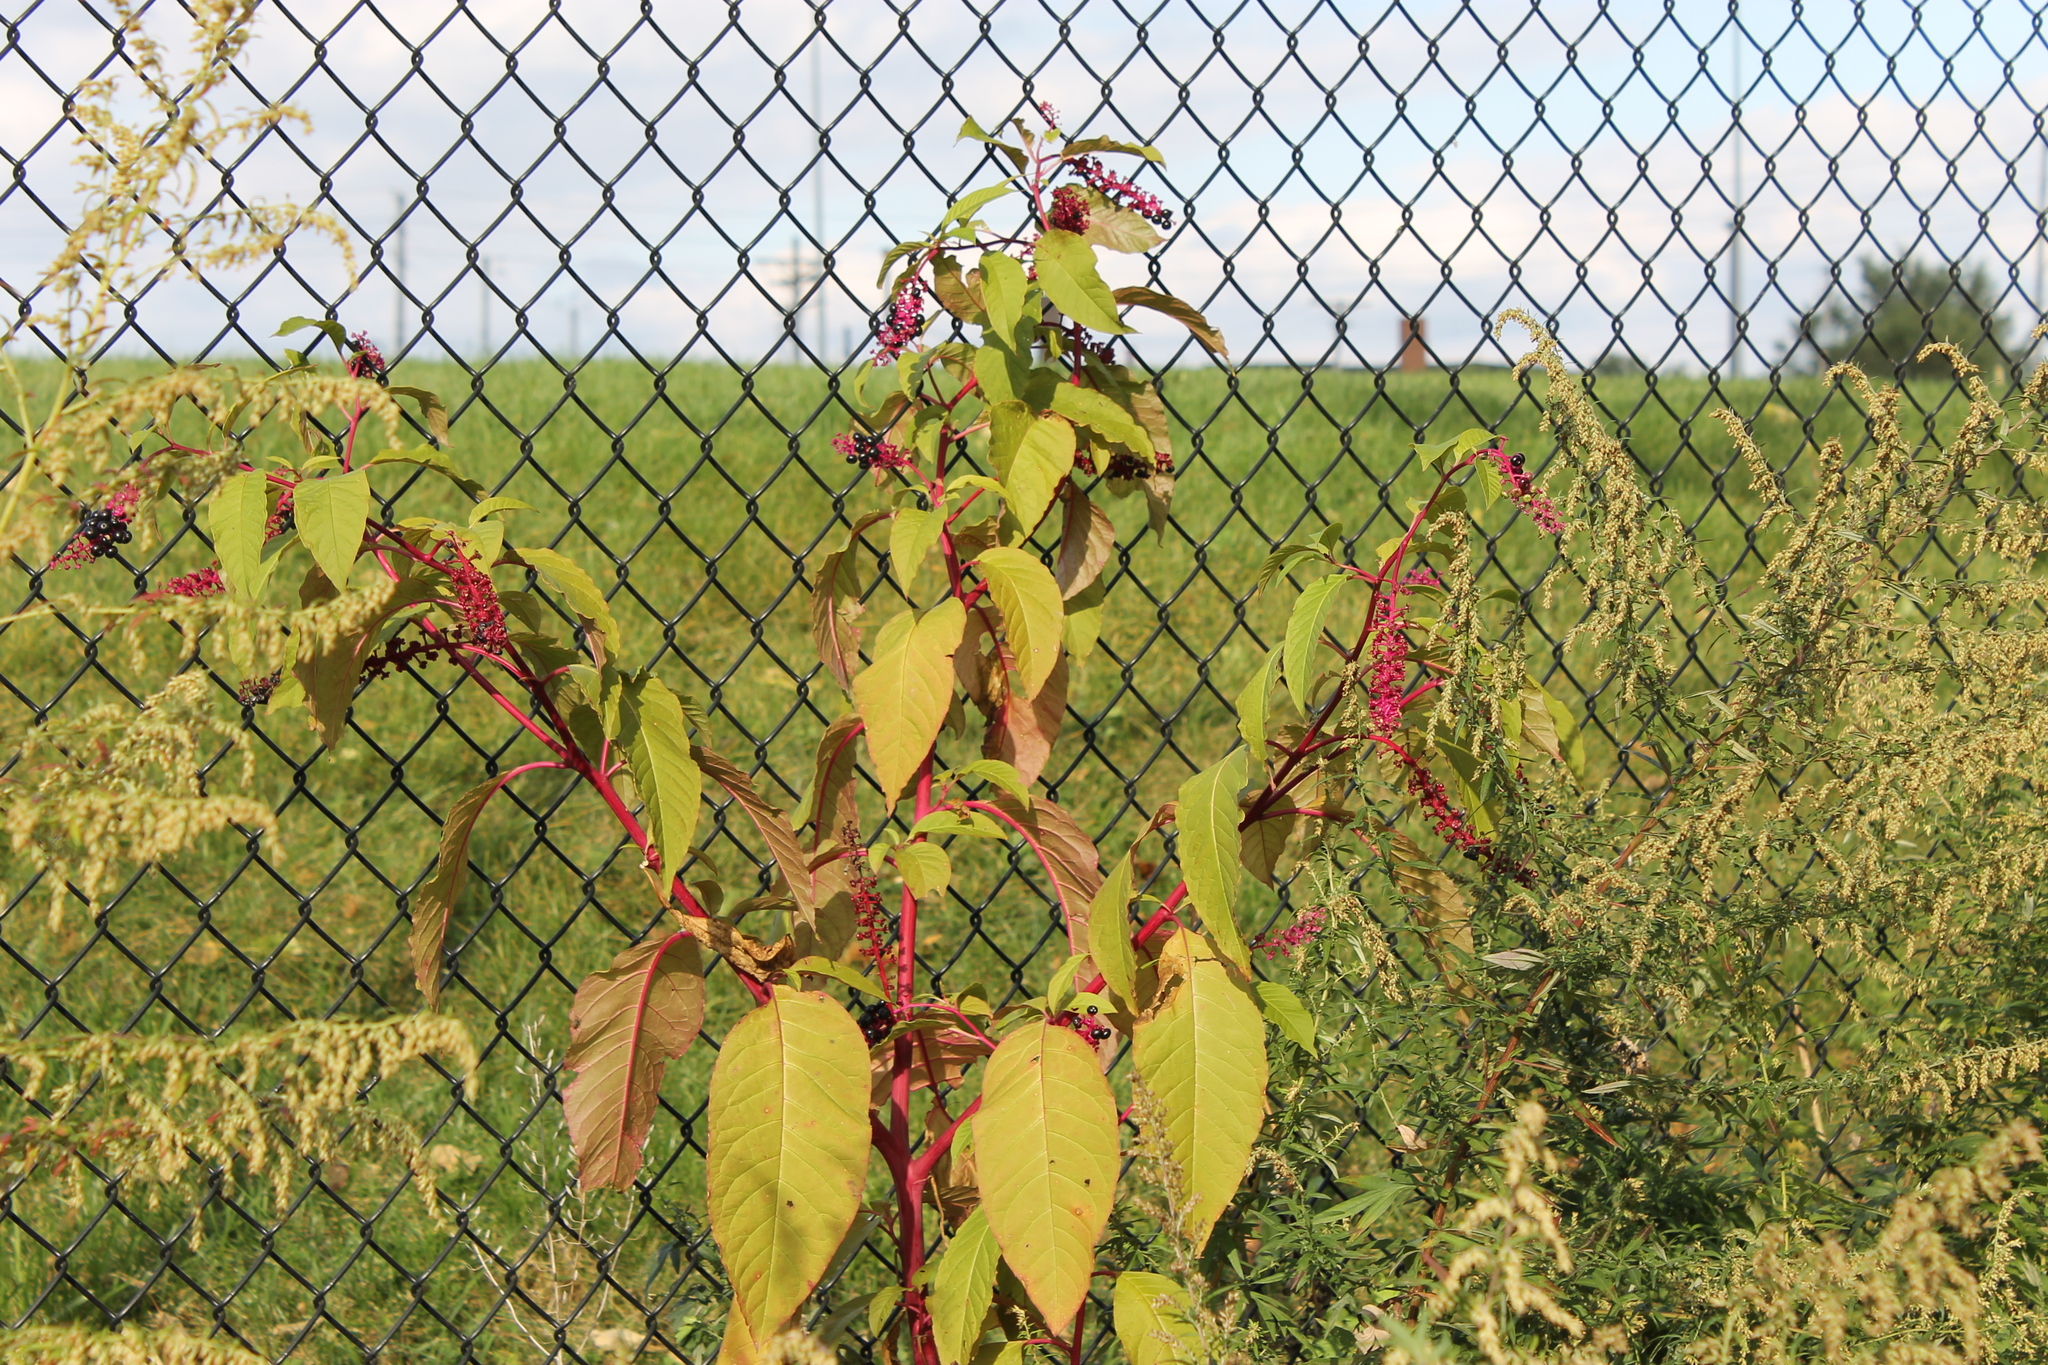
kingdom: Plantae
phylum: Tracheophyta
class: Magnoliopsida
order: Caryophyllales
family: Phytolaccaceae
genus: Phytolacca
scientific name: Phytolacca americana
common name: American pokeweed
